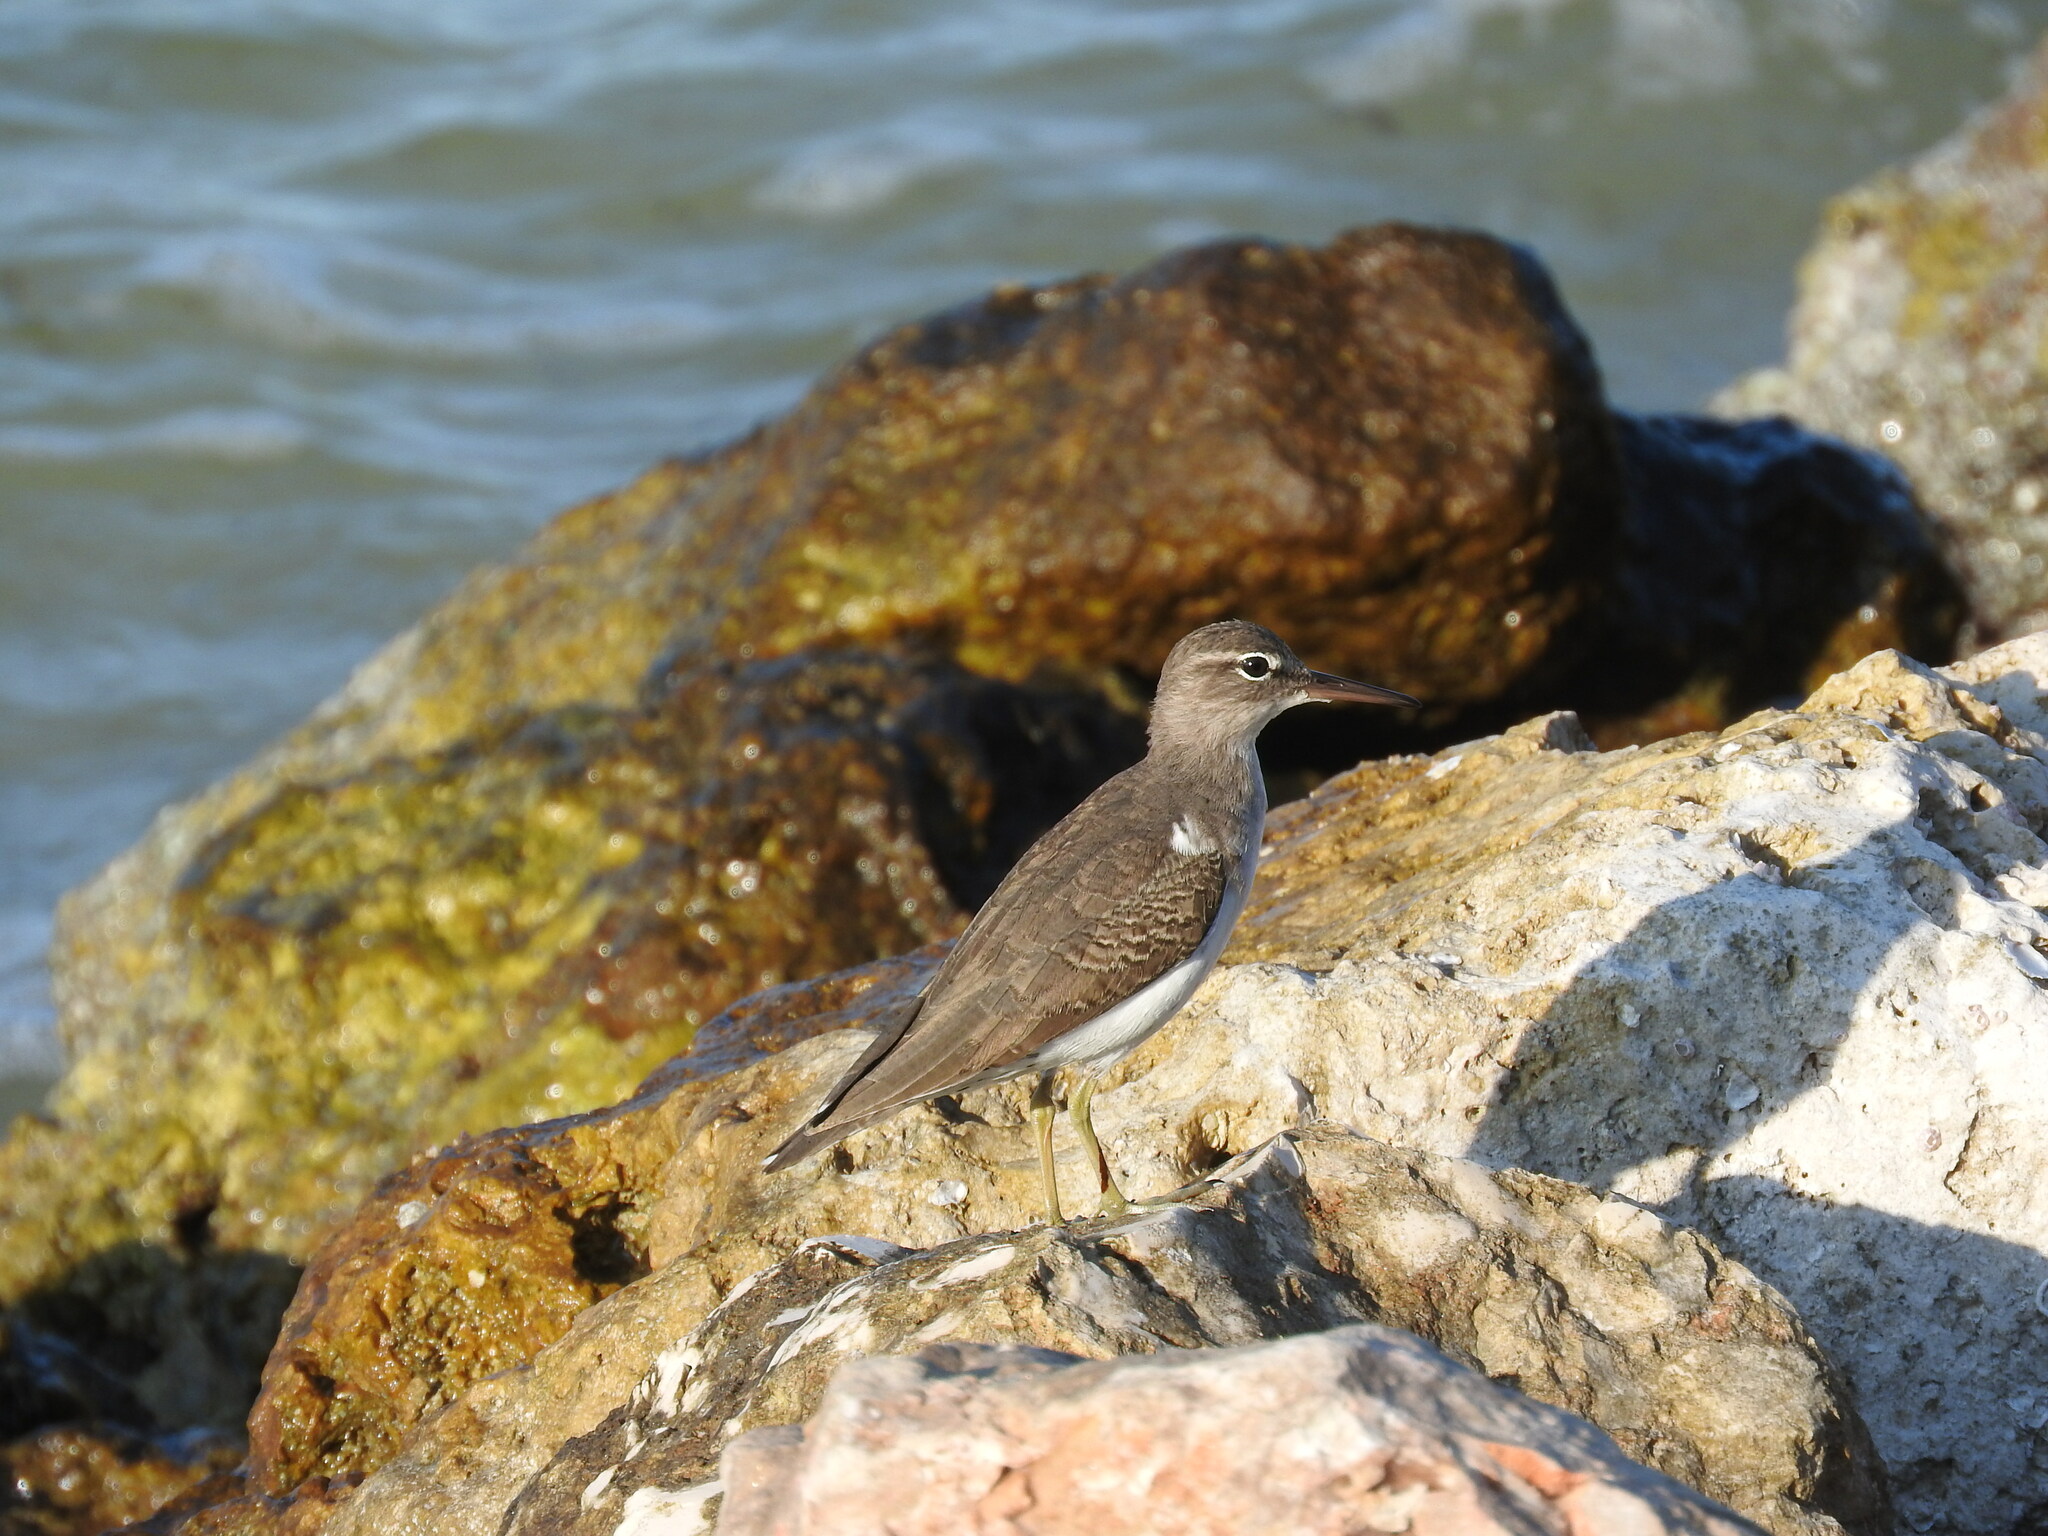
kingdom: Animalia
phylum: Chordata
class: Aves
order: Charadriiformes
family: Scolopacidae
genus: Actitis
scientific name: Actitis macularius
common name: Spotted sandpiper
